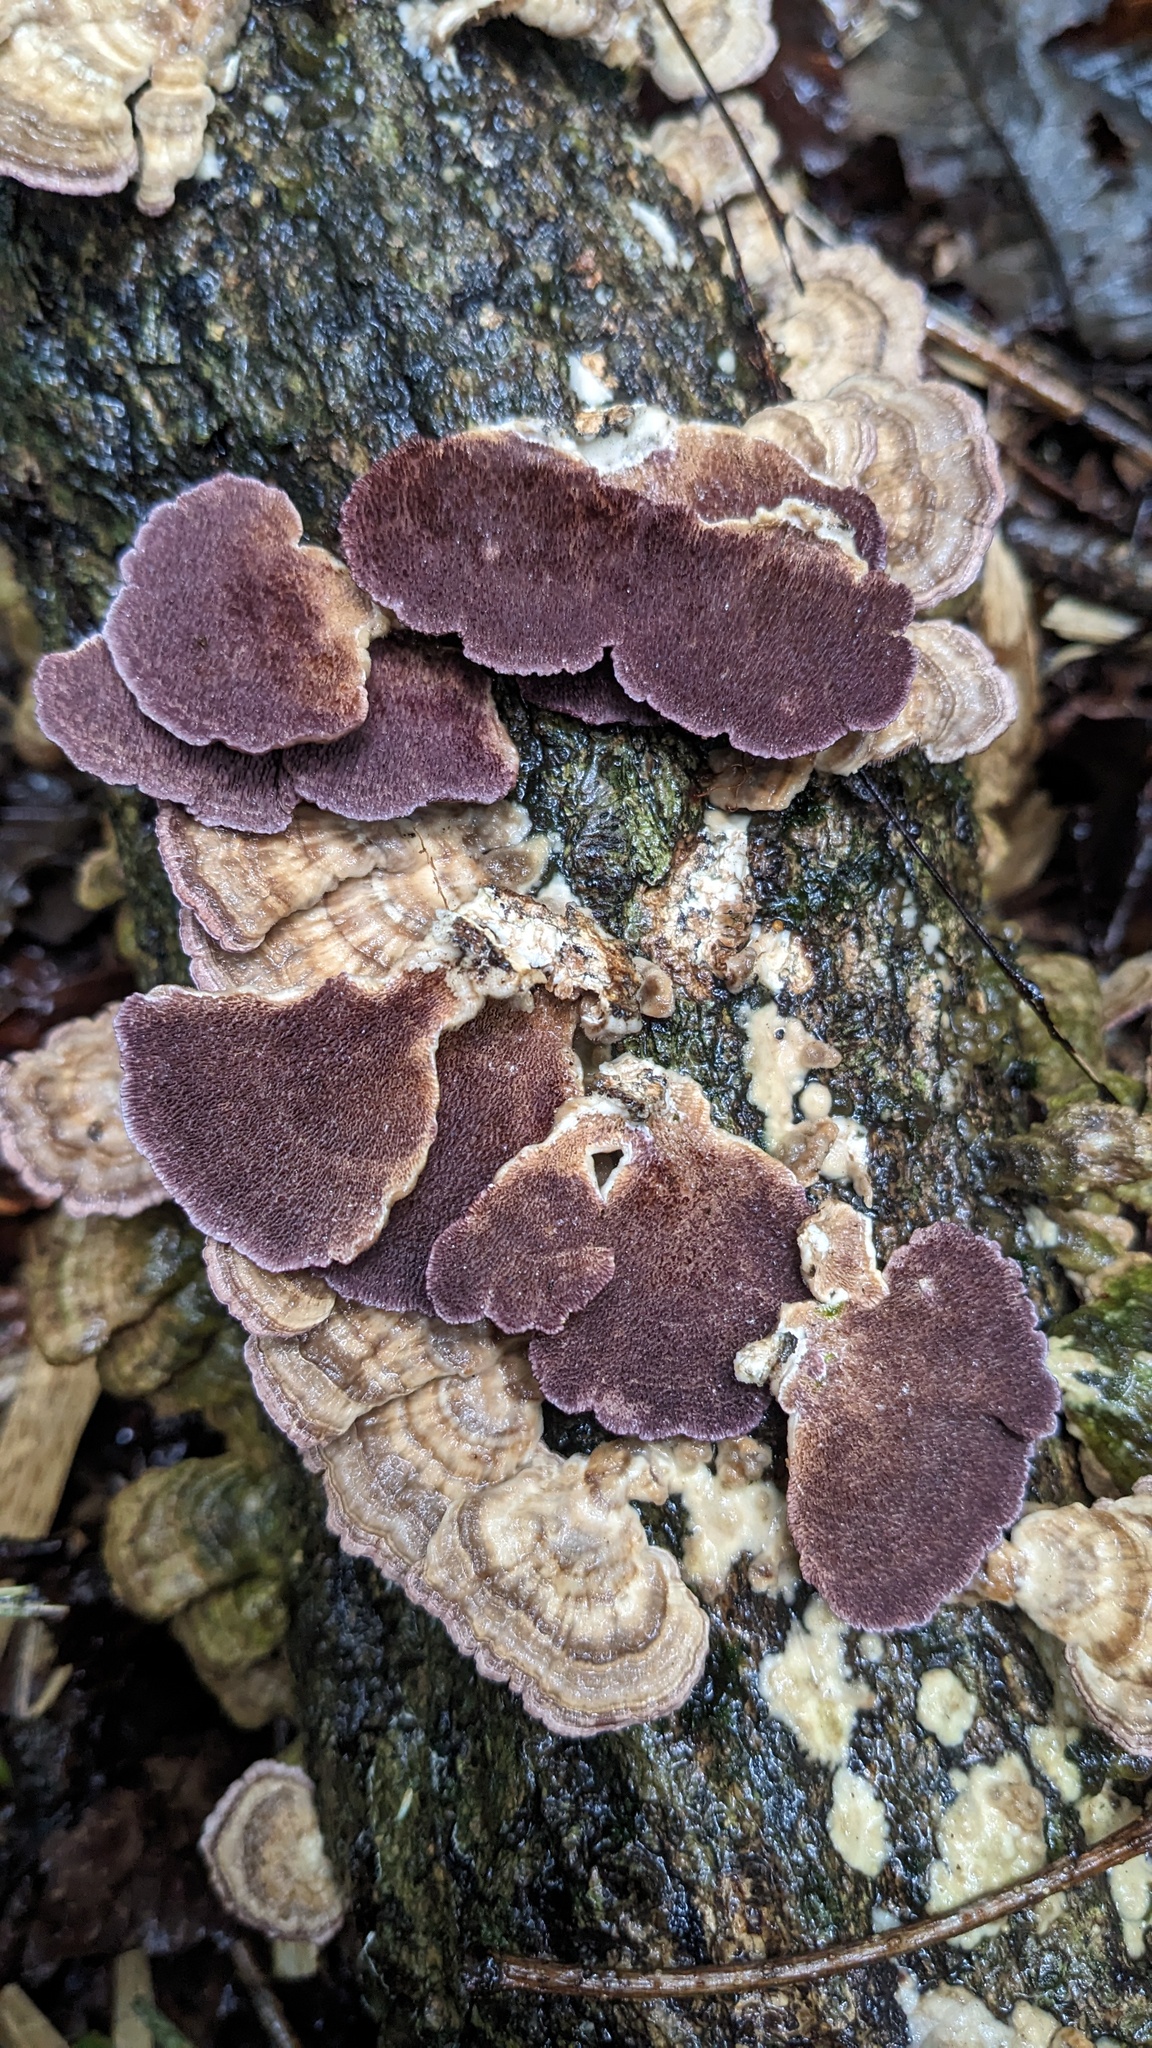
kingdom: Fungi
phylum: Basidiomycota
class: Agaricomycetes
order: Hymenochaetales
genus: Trichaptum
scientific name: Trichaptum biforme
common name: Violet-toothed polypore
